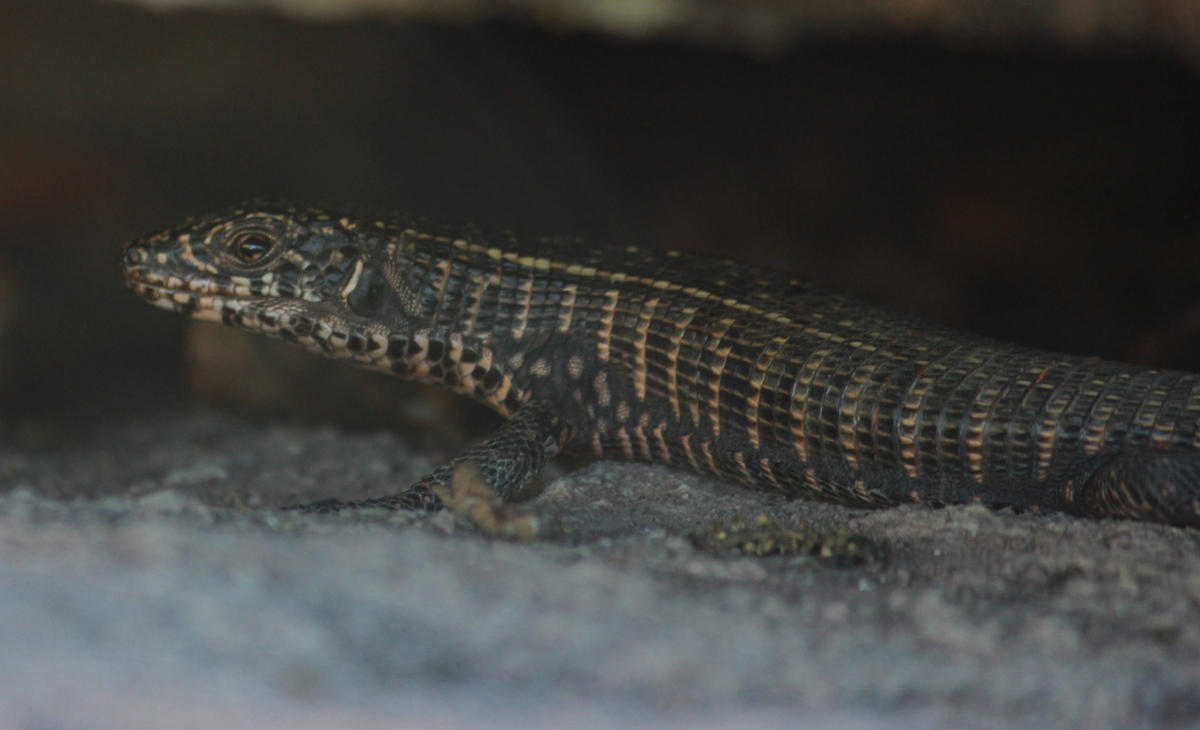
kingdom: Animalia
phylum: Chordata
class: Squamata
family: Gerrhosauridae
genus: Matobosaurus
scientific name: Matobosaurus validus
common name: Common giant plated lizard
